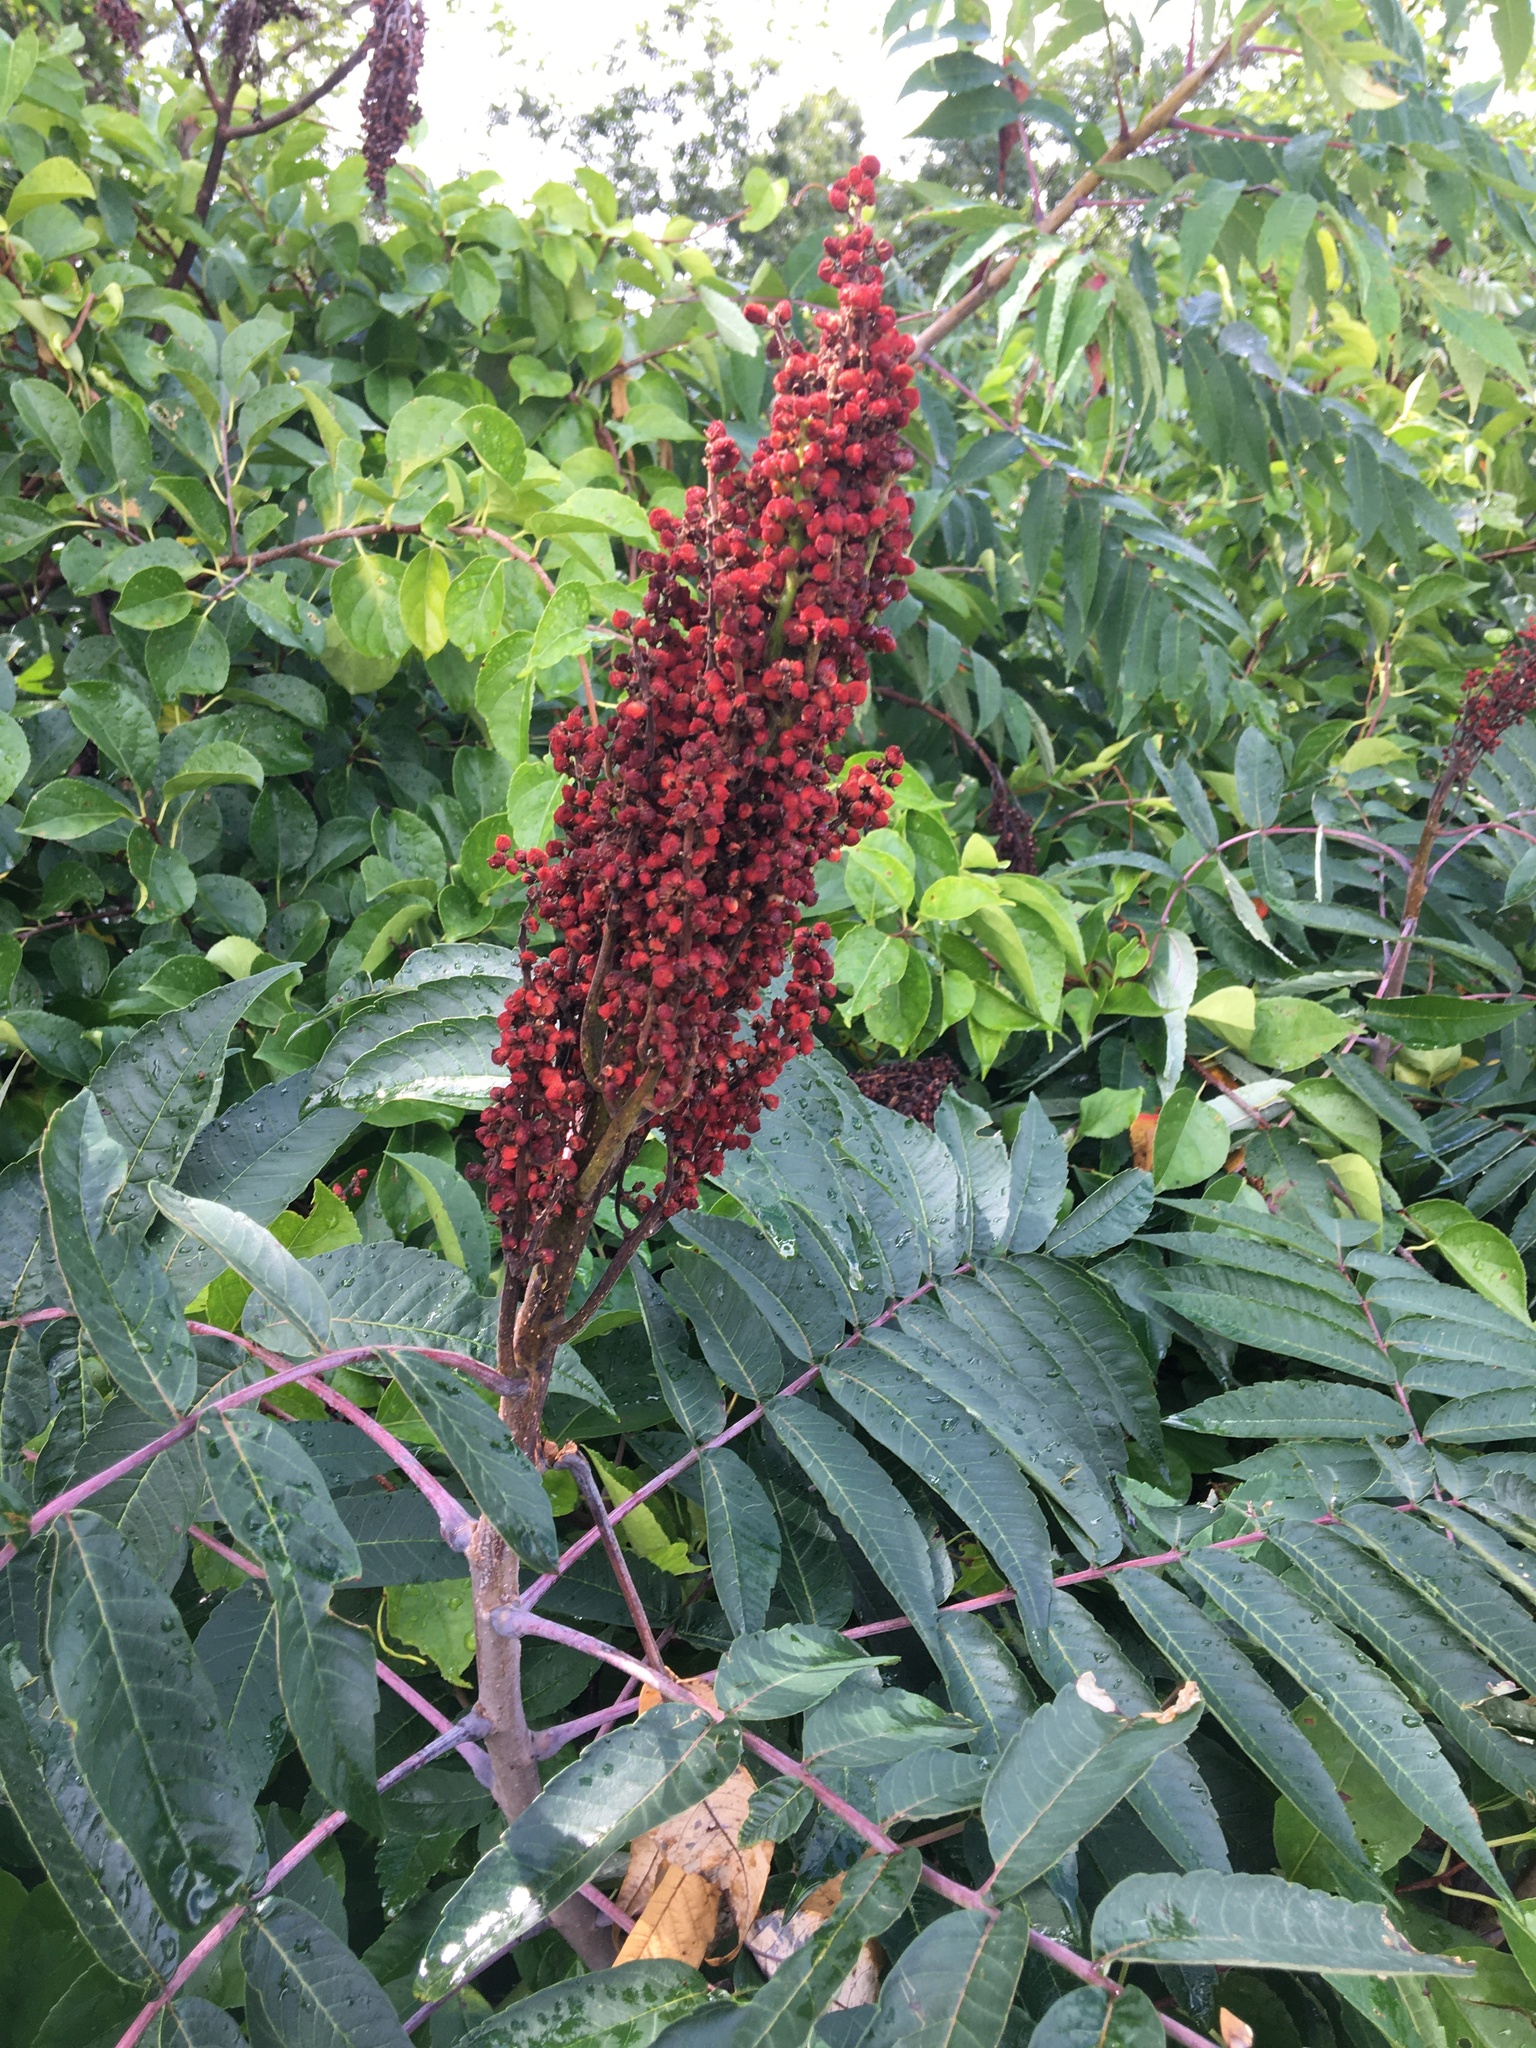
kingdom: Plantae
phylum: Tracheophyta
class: Magnoliopsida
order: Sapindales
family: Anacardiaceae
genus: Rhus
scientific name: Rhus glabra
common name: Scarlet sumac
